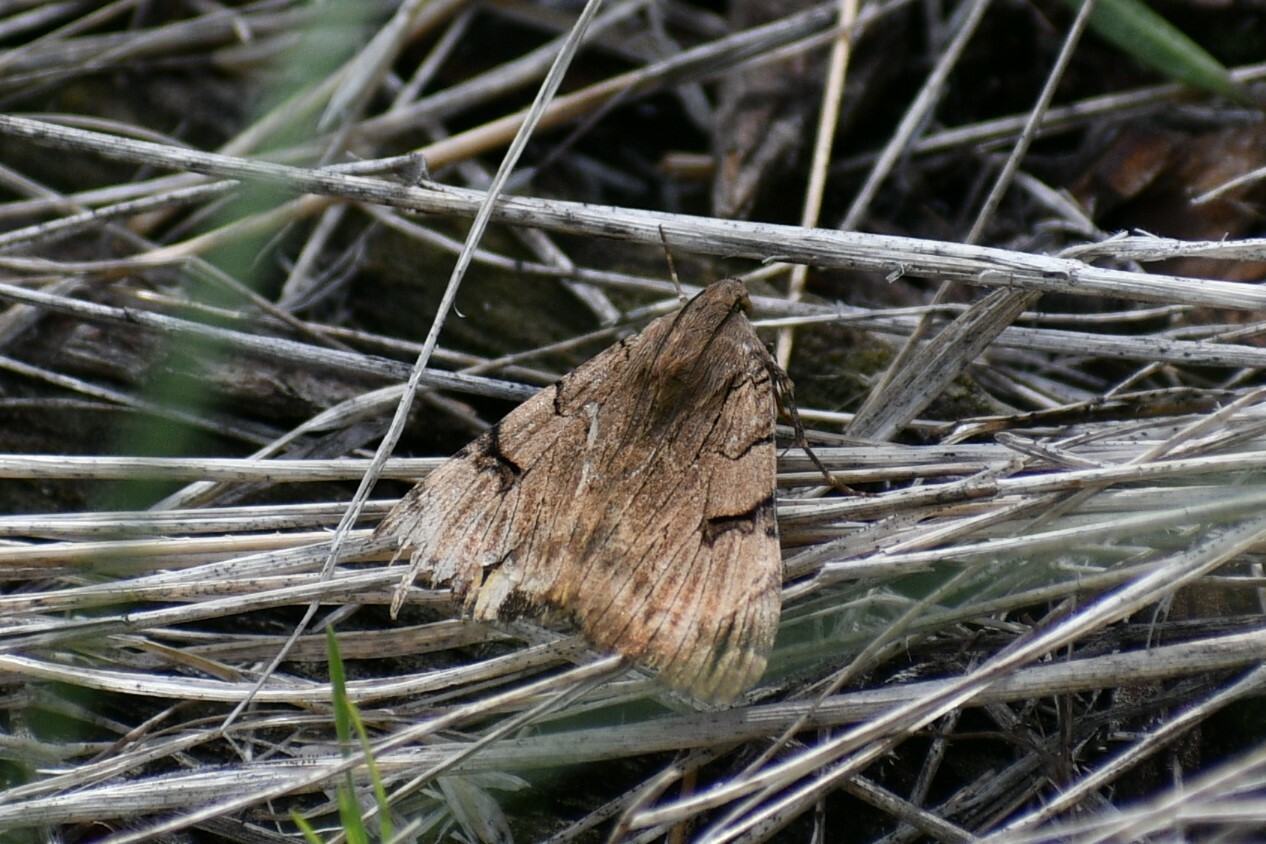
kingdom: Animalia
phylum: Arthropoda
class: Insecta
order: Lepidoptera
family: Erebidae
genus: Drasteria
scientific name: Drasteria ochracea
